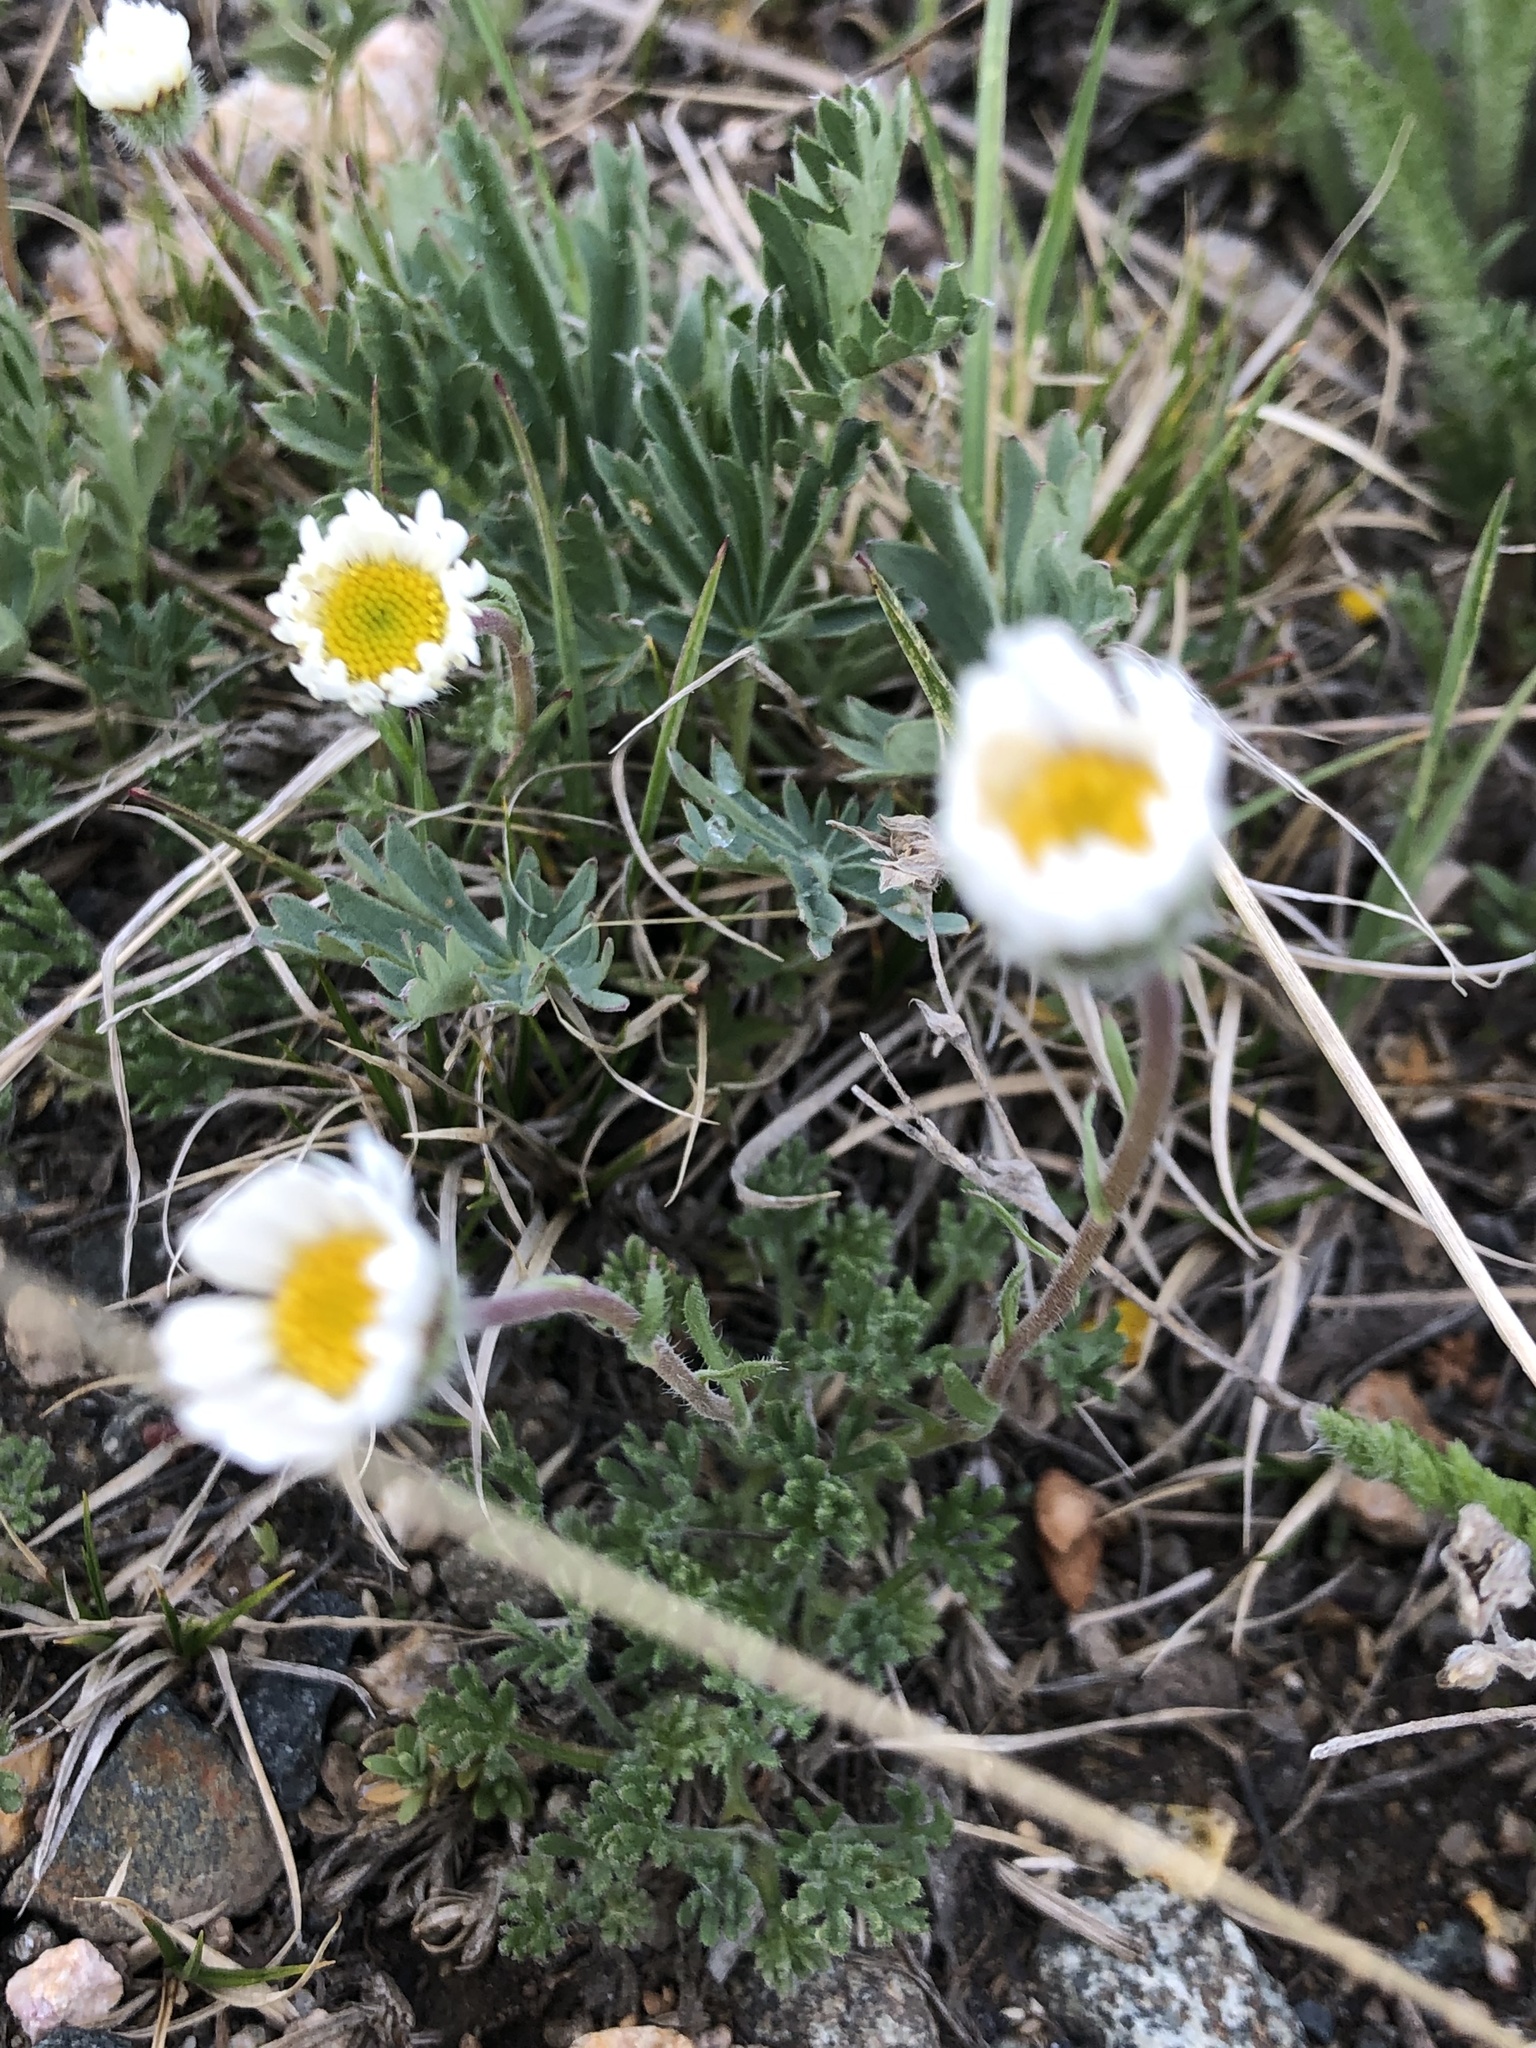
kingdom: Plantae
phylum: Tracheophyta
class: Magnoliopsida
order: Asterales
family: Asteraceae
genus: Erigeron
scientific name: Erigeron compositus
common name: Dwarf mountain fleabane
